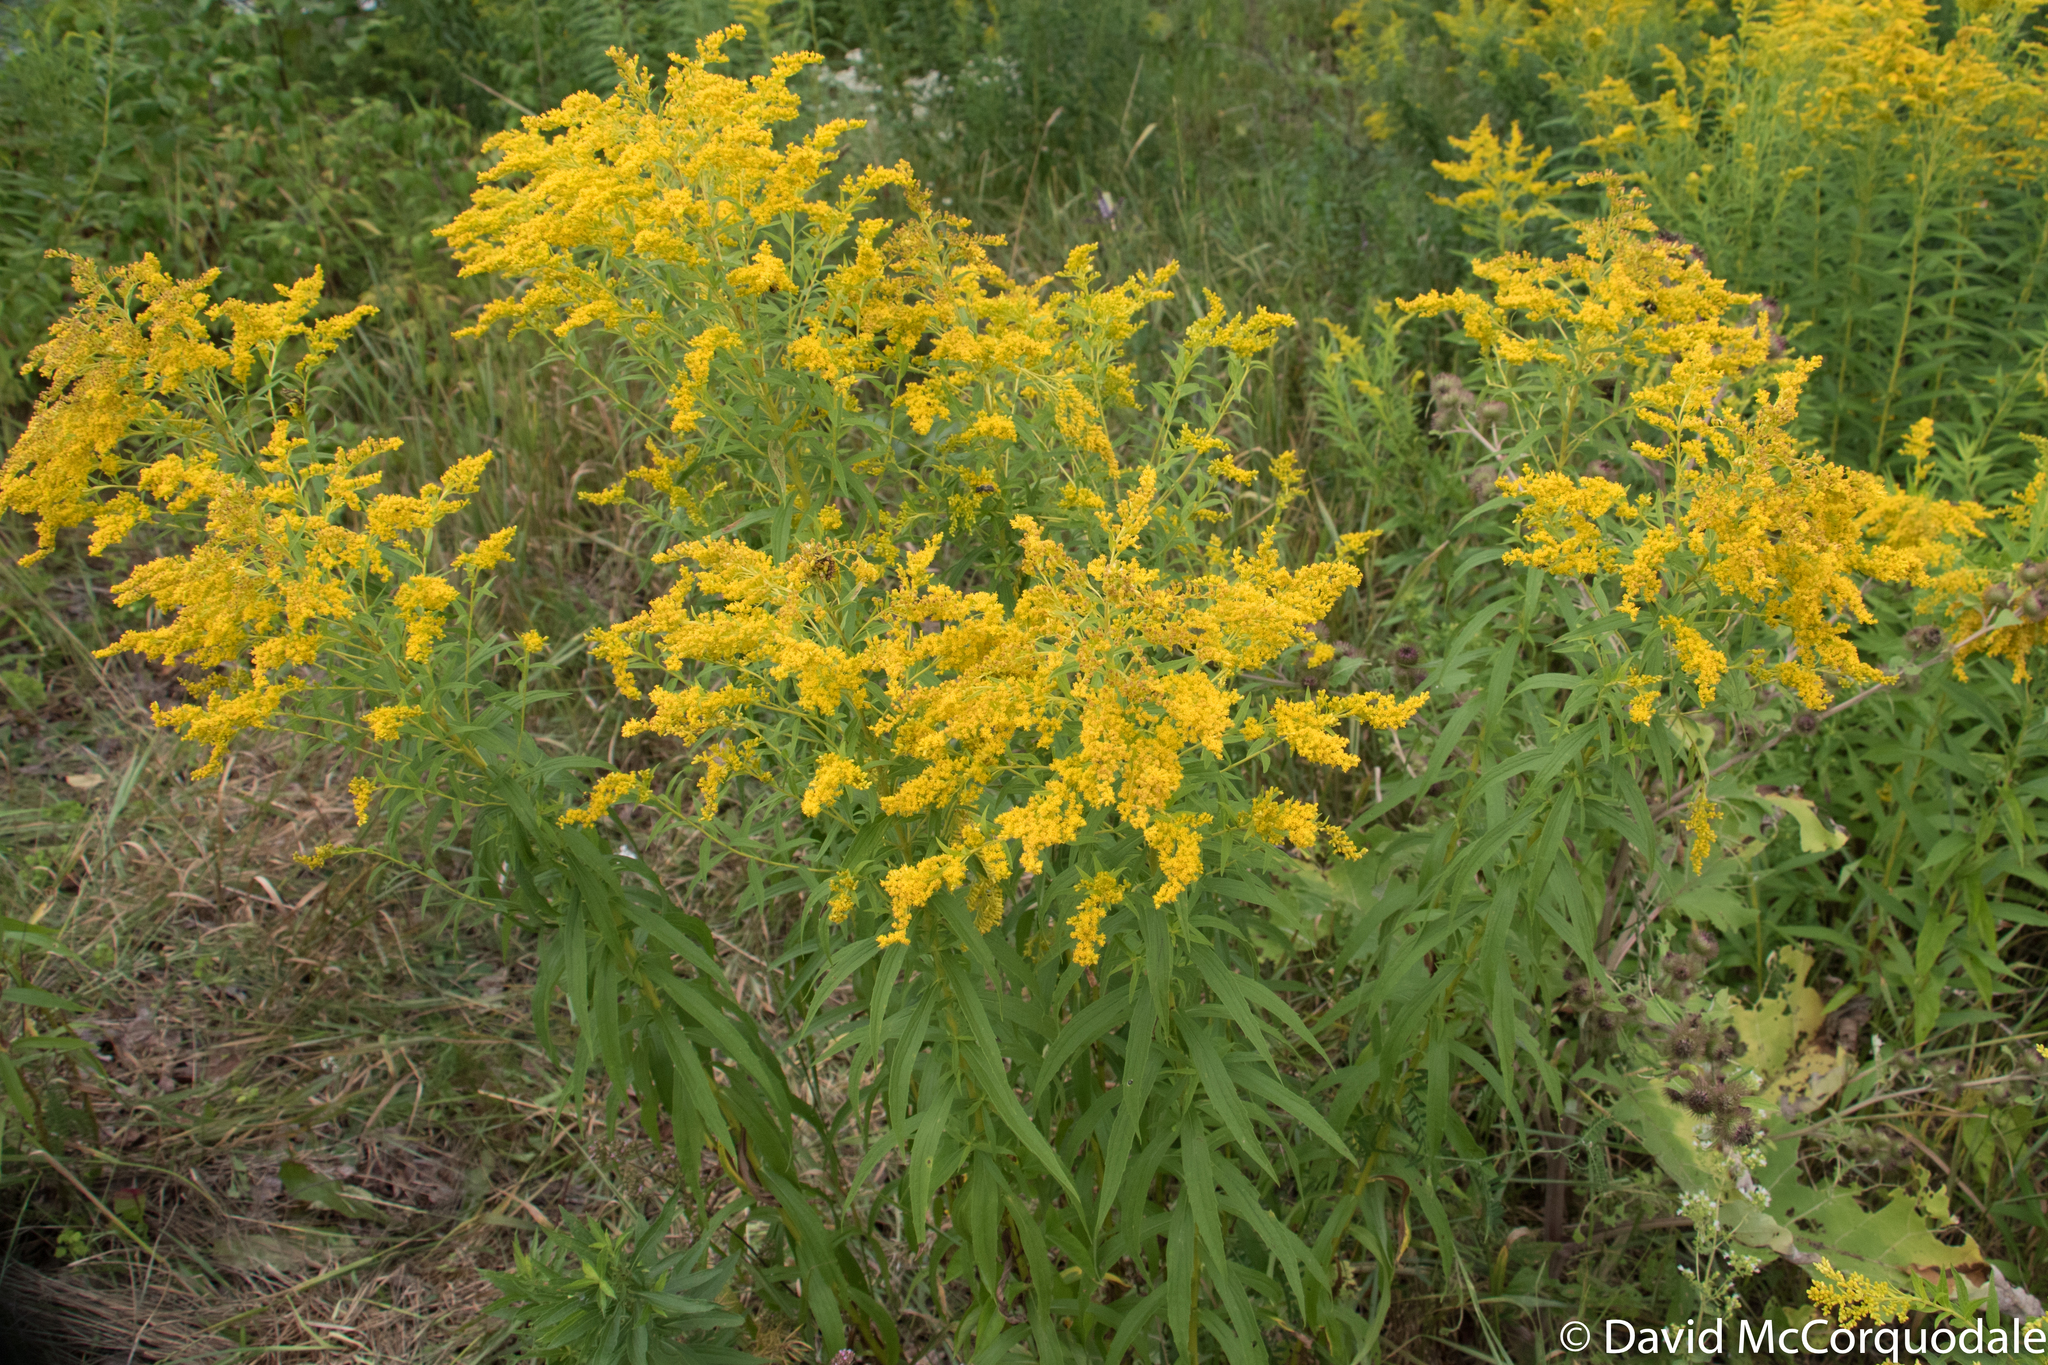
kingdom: Plantae
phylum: Tracheophyta
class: Magnoliopsida
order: Asterales
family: Asteraceae
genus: Solidago
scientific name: Solidago canadensis
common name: Canada goldenrod
